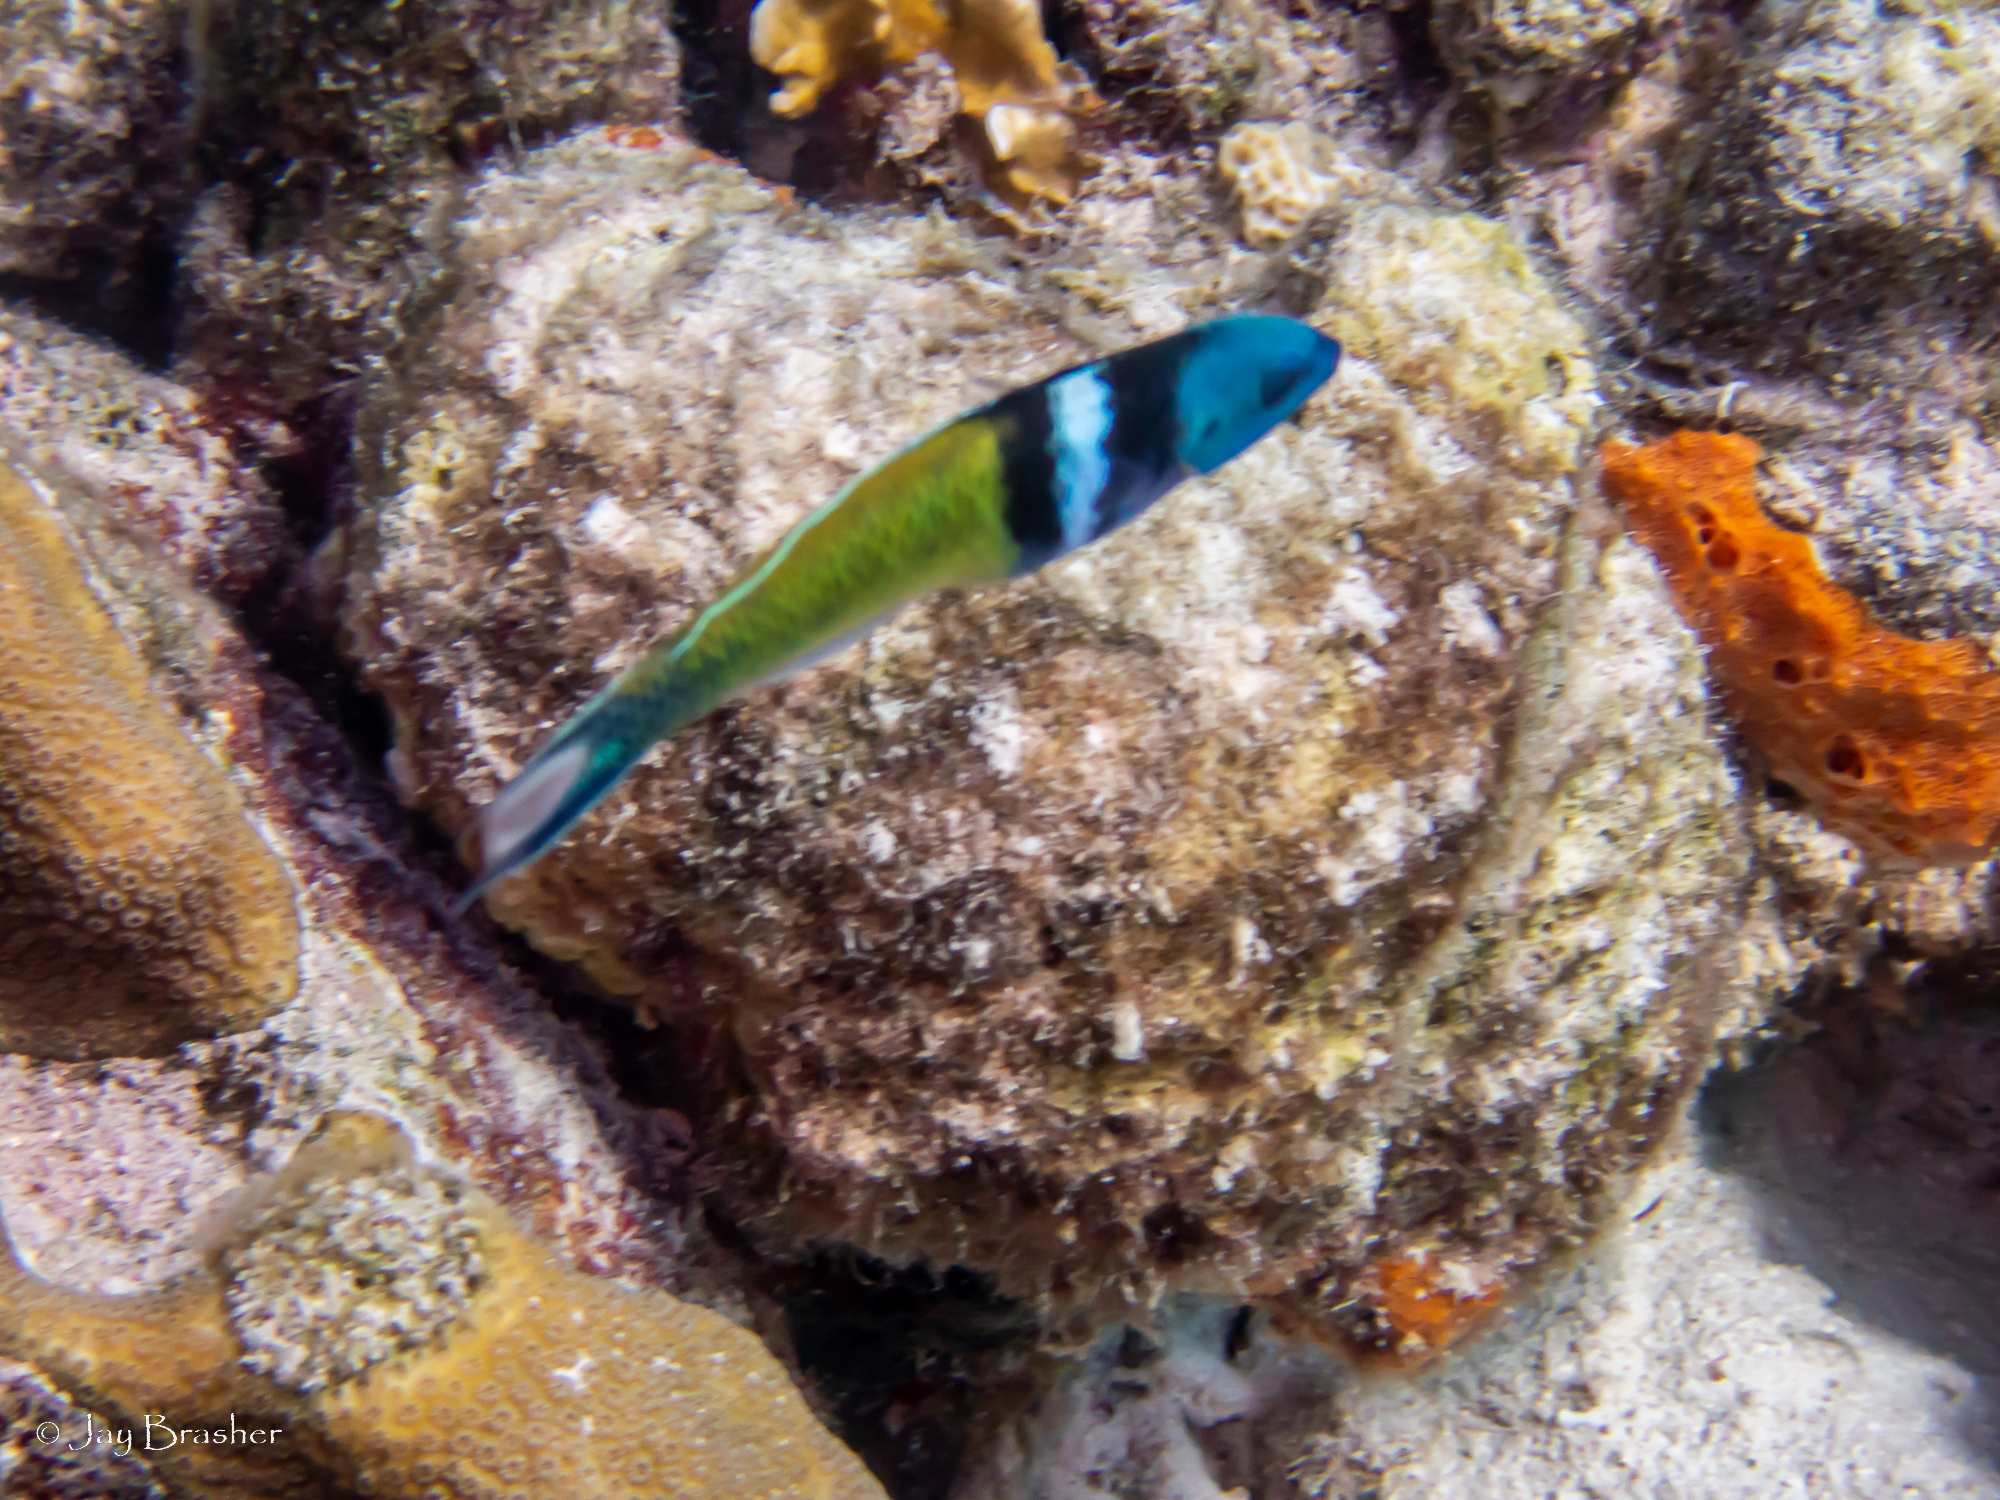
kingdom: Animalia
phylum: Porifera
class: Demospongiae
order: Scopalinida
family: Scopalinidae
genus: Scopalina
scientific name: Scopalina ruetzleri
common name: Orange lumpy encrusting sponge
